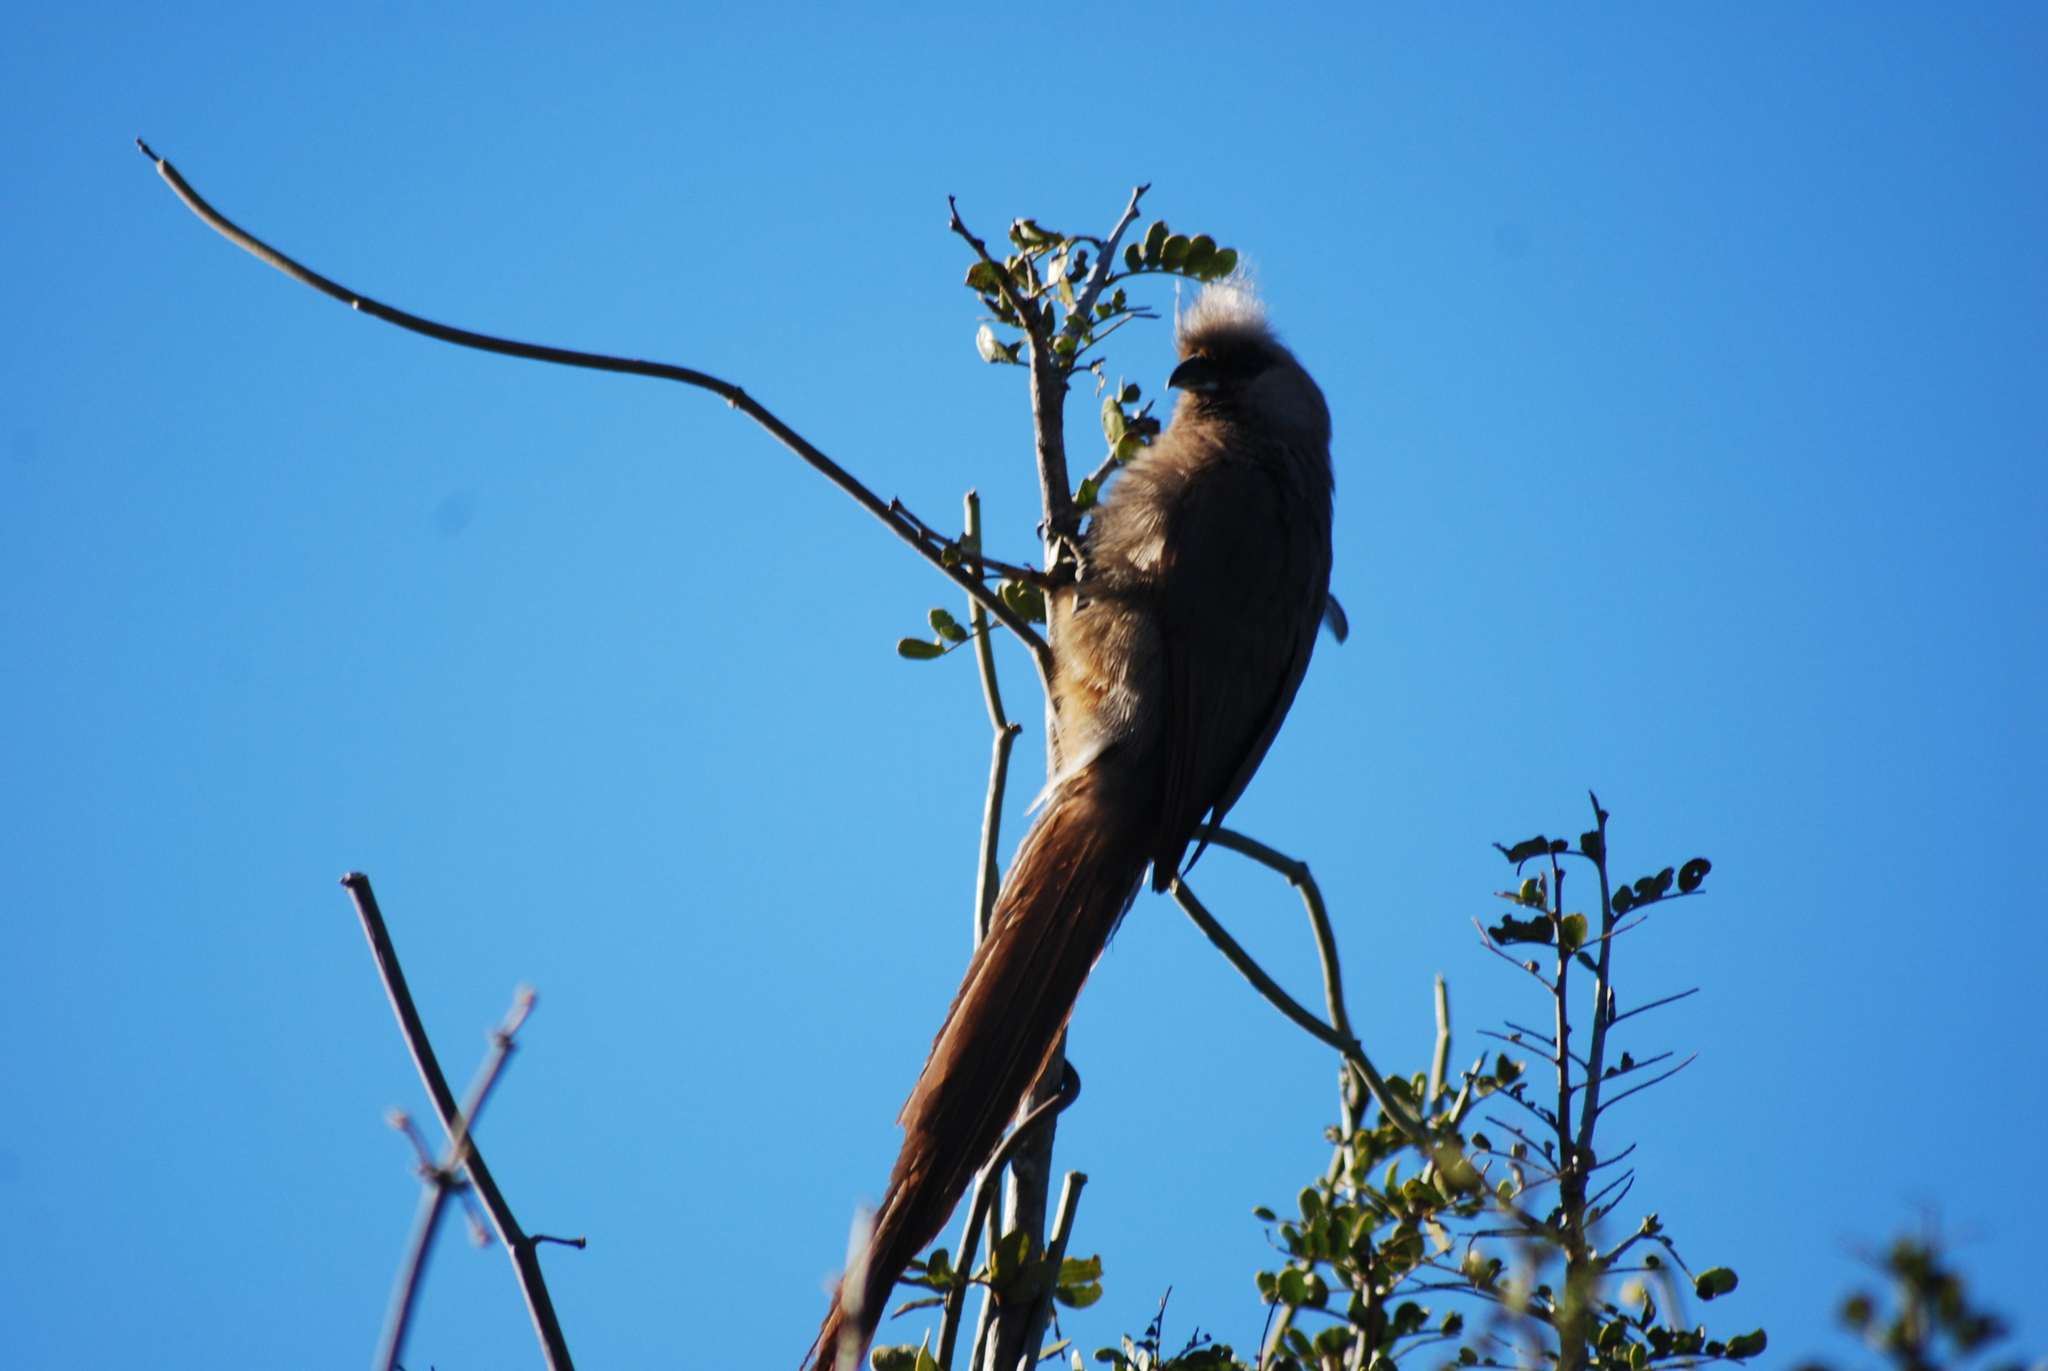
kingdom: Animalia
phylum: Chordata
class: Aves
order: Coliiformes
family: Coliidae
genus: Colius
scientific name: Colius striatus
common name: Speckled mousebird
